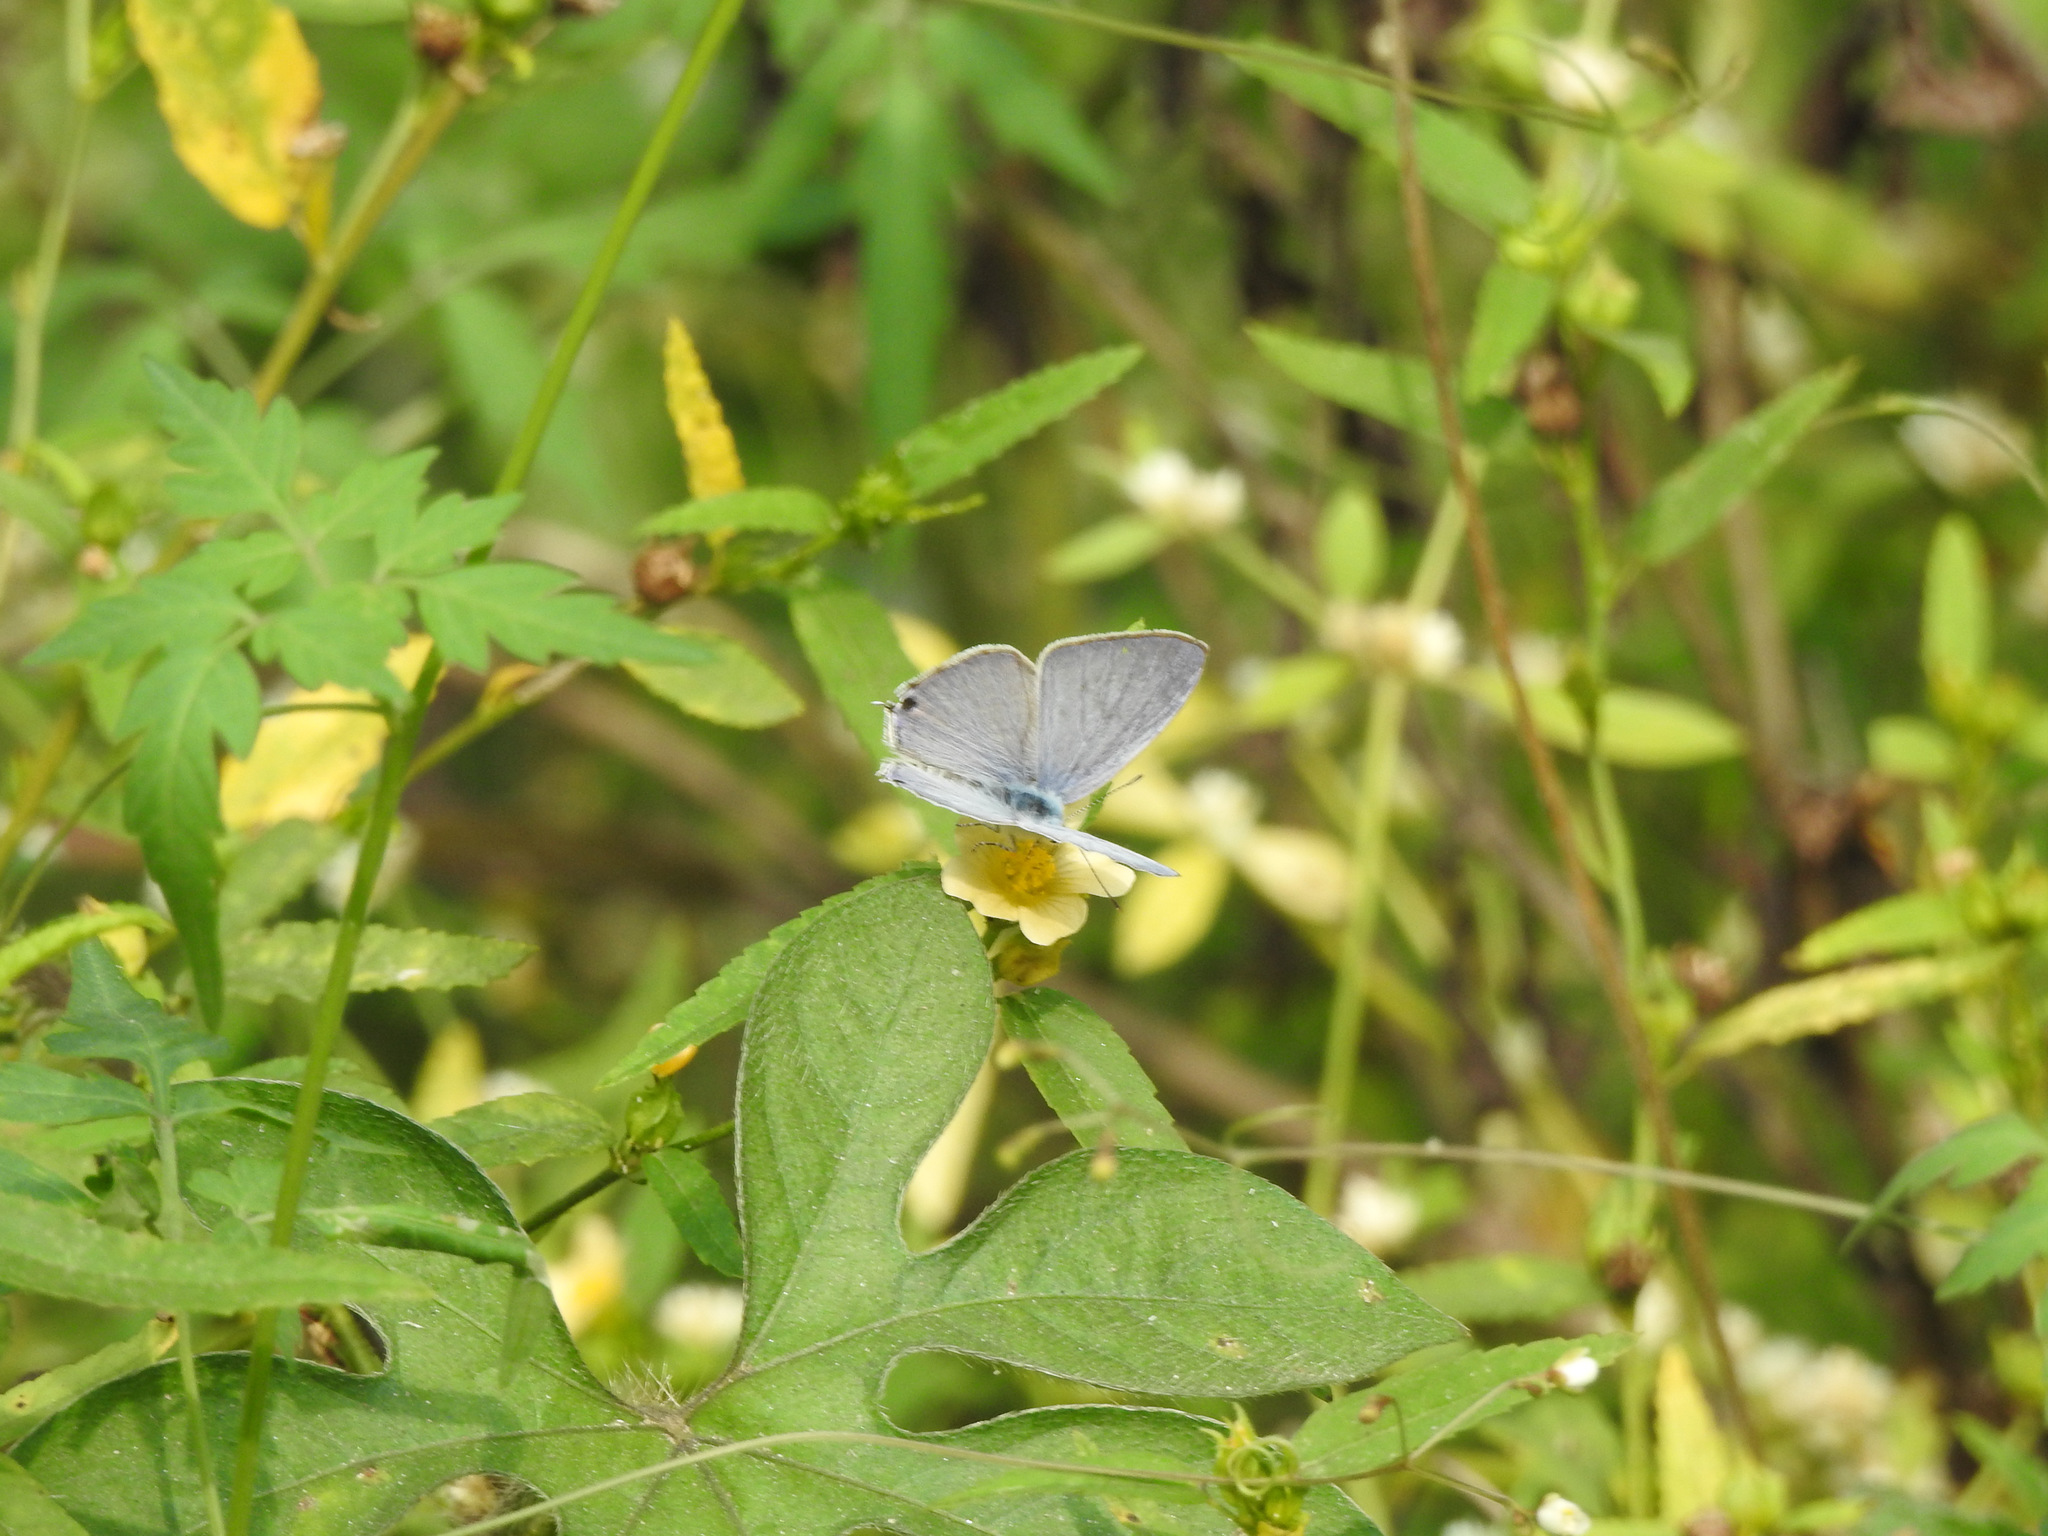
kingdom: Animalia
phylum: Arthropoda
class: Insecta
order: Lepidoptera
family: Lycaenidae
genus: Catochrysops
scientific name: Catochrysops strabo
